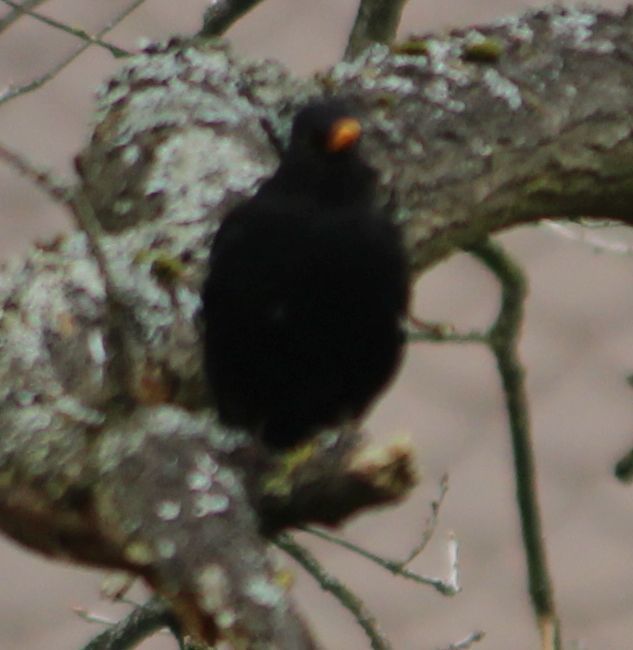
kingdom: Animalia
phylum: Chordata
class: Aves
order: Passeriformes
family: Turdidae
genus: Turdus
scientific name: Turdus merula
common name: Common blackbird
